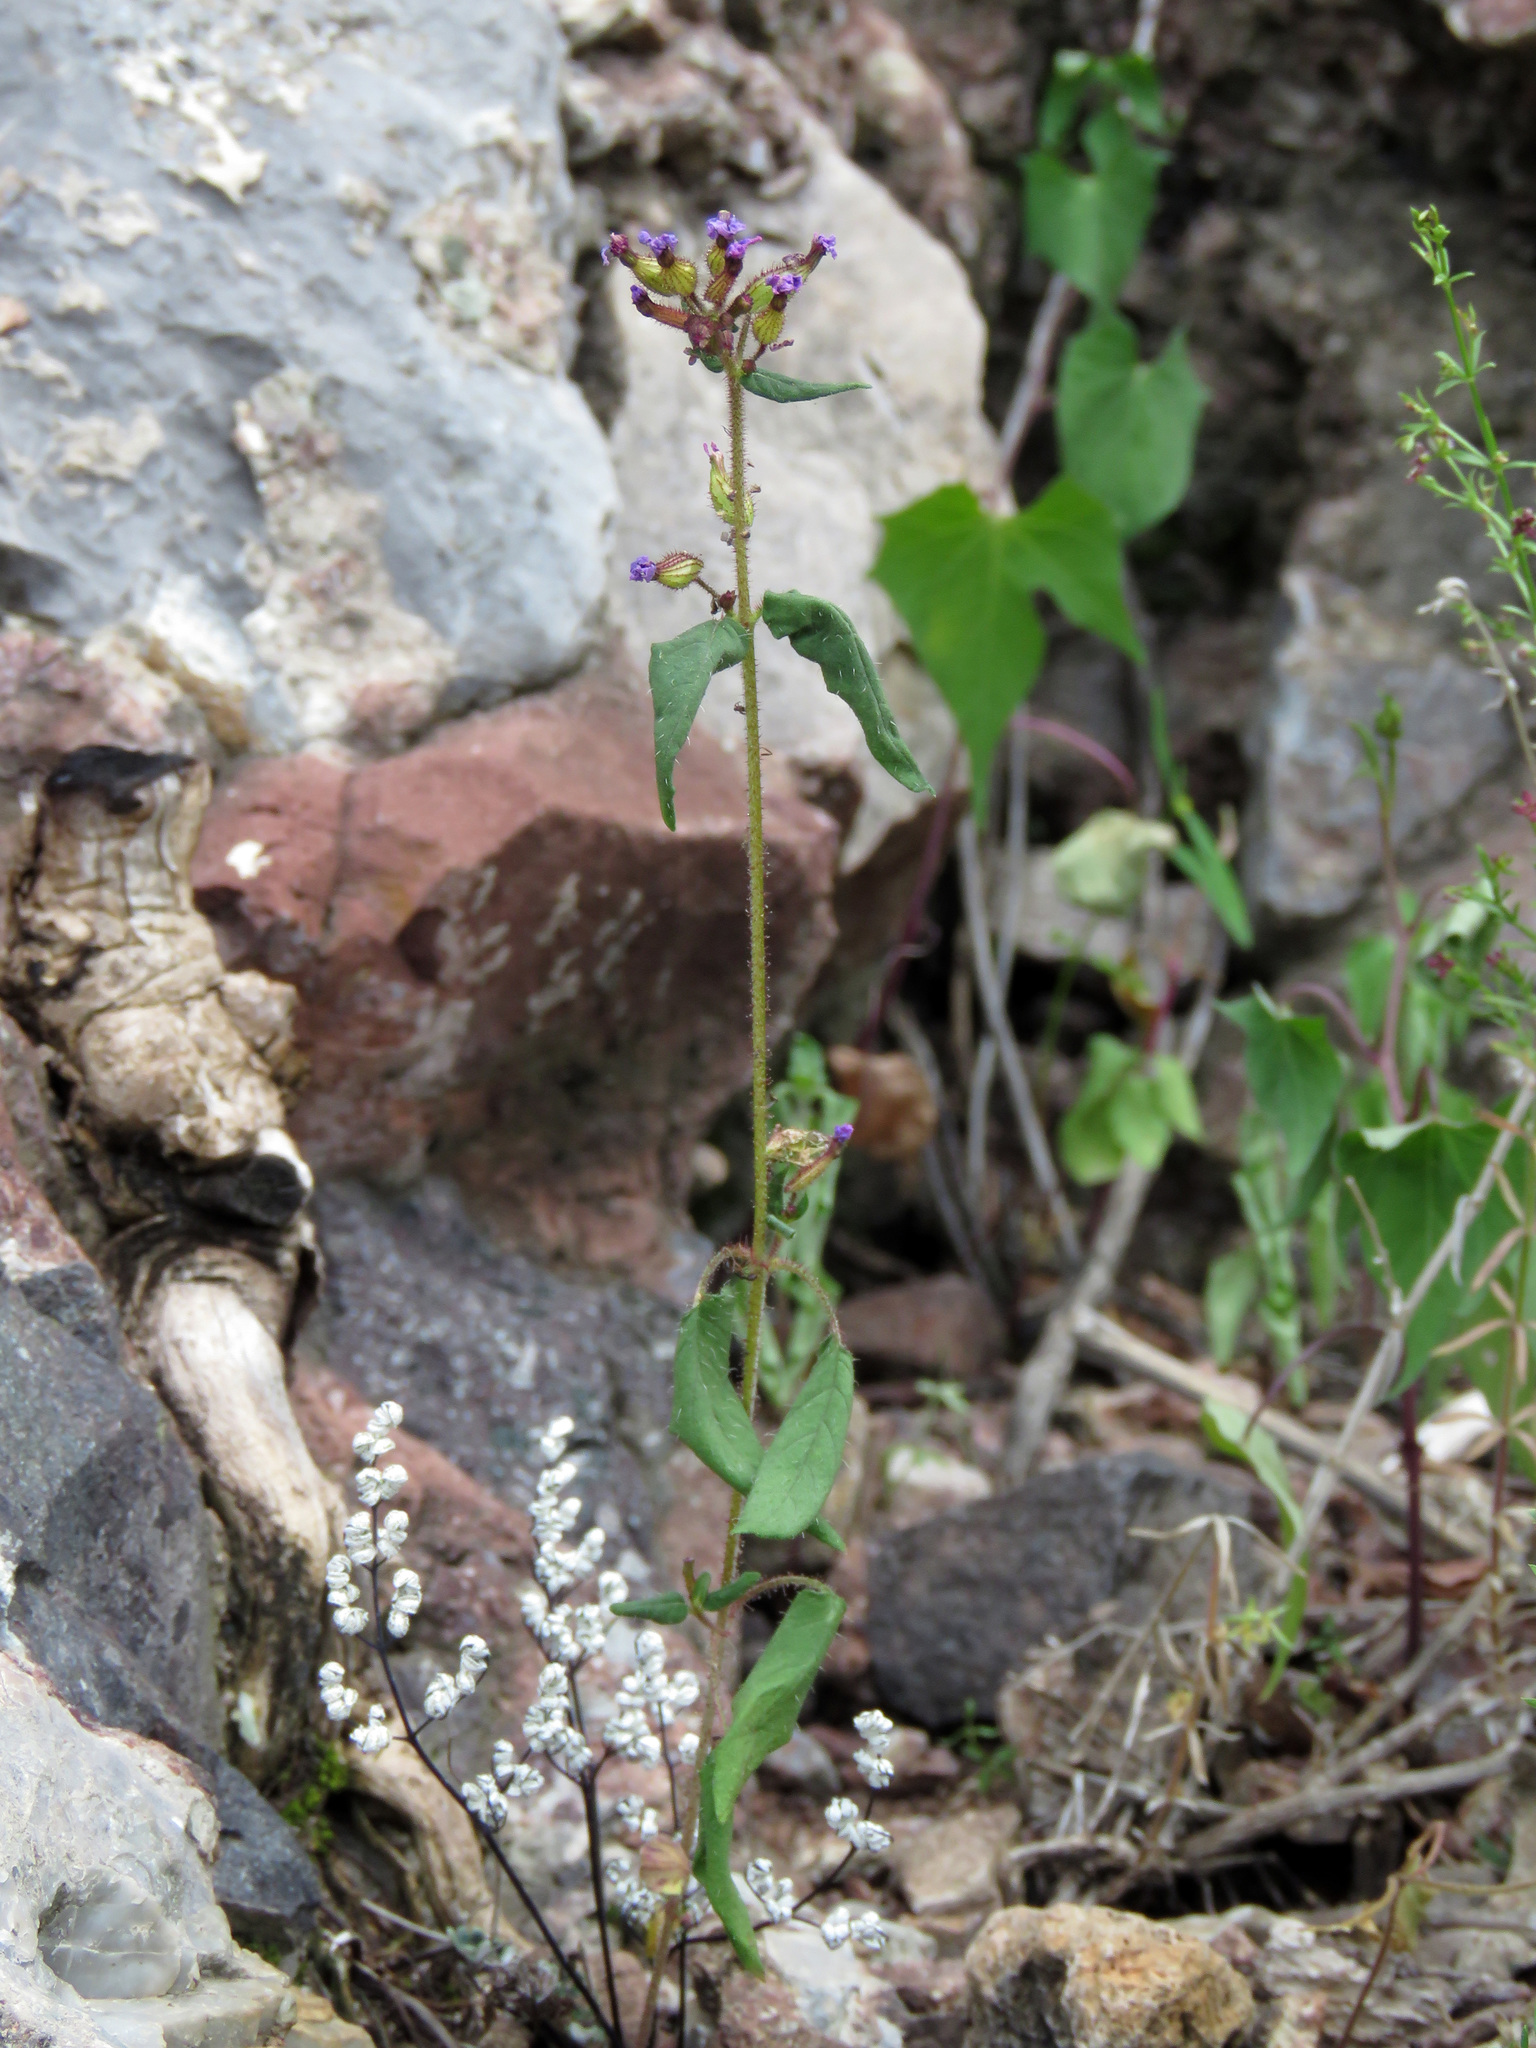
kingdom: Plantae
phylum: Tracheophyta
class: Magnoliopsida
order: Myrtales
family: Lythraceae
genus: Cuphea
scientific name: Cuphea wrightii
